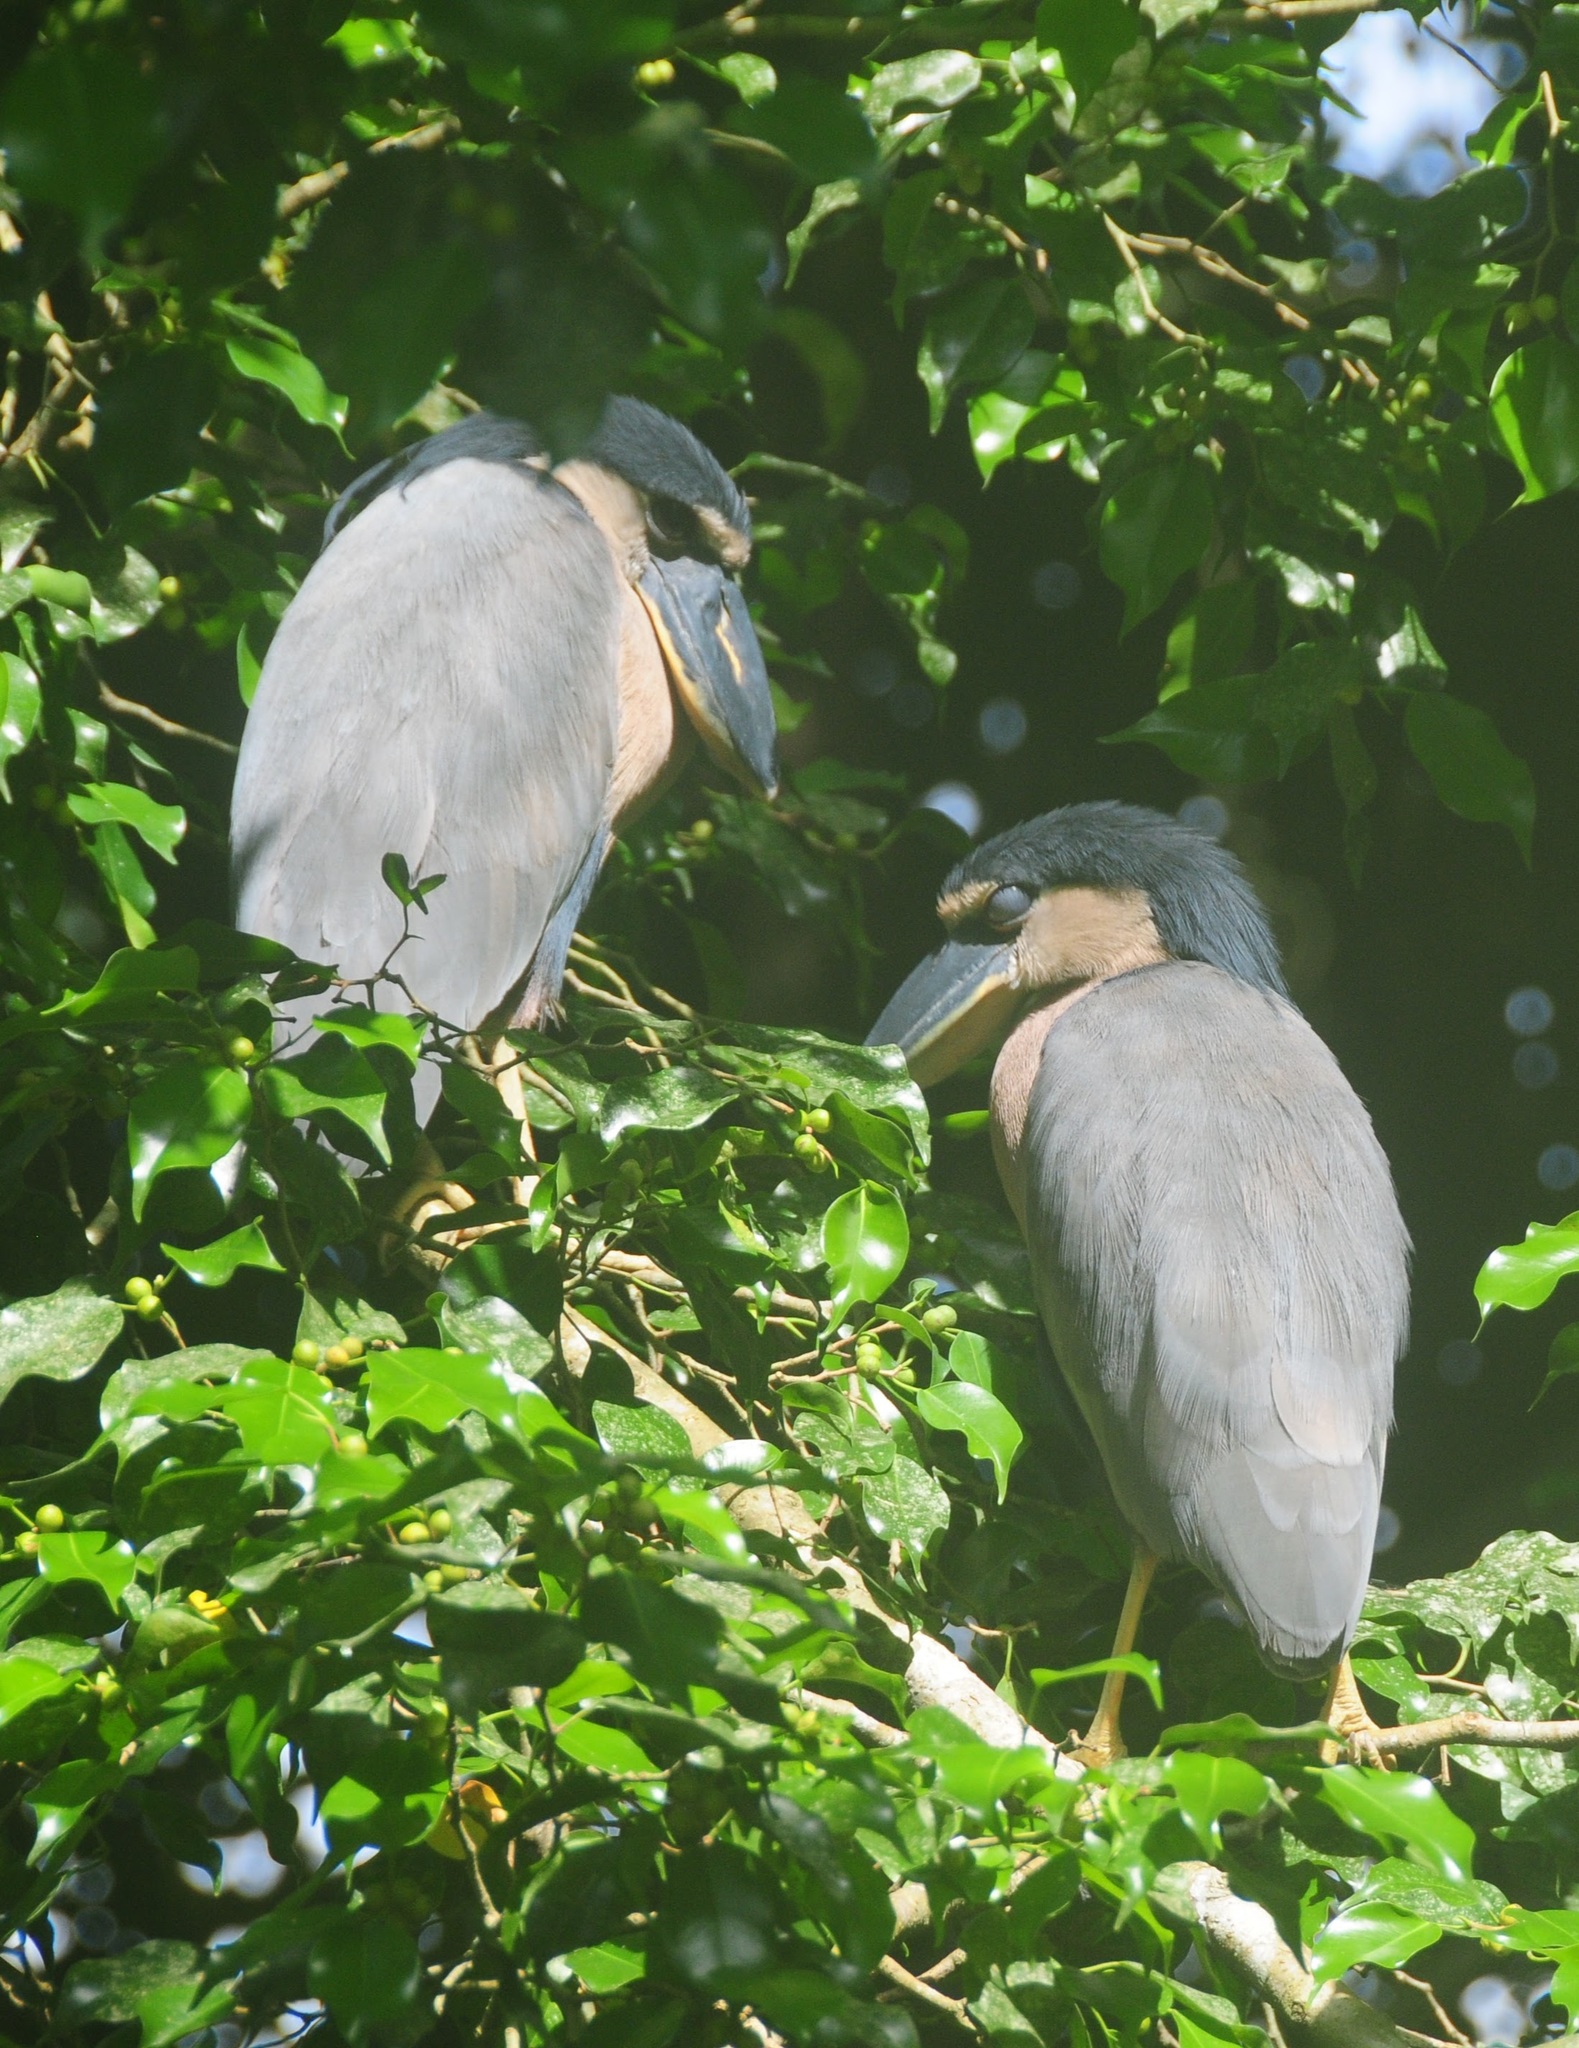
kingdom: Animalia
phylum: Chordata
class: Aves
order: Pelecaniformes
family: Ardeidae
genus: Cochlearius
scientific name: Cochlearius cochlearius
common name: Boat-billed heron
